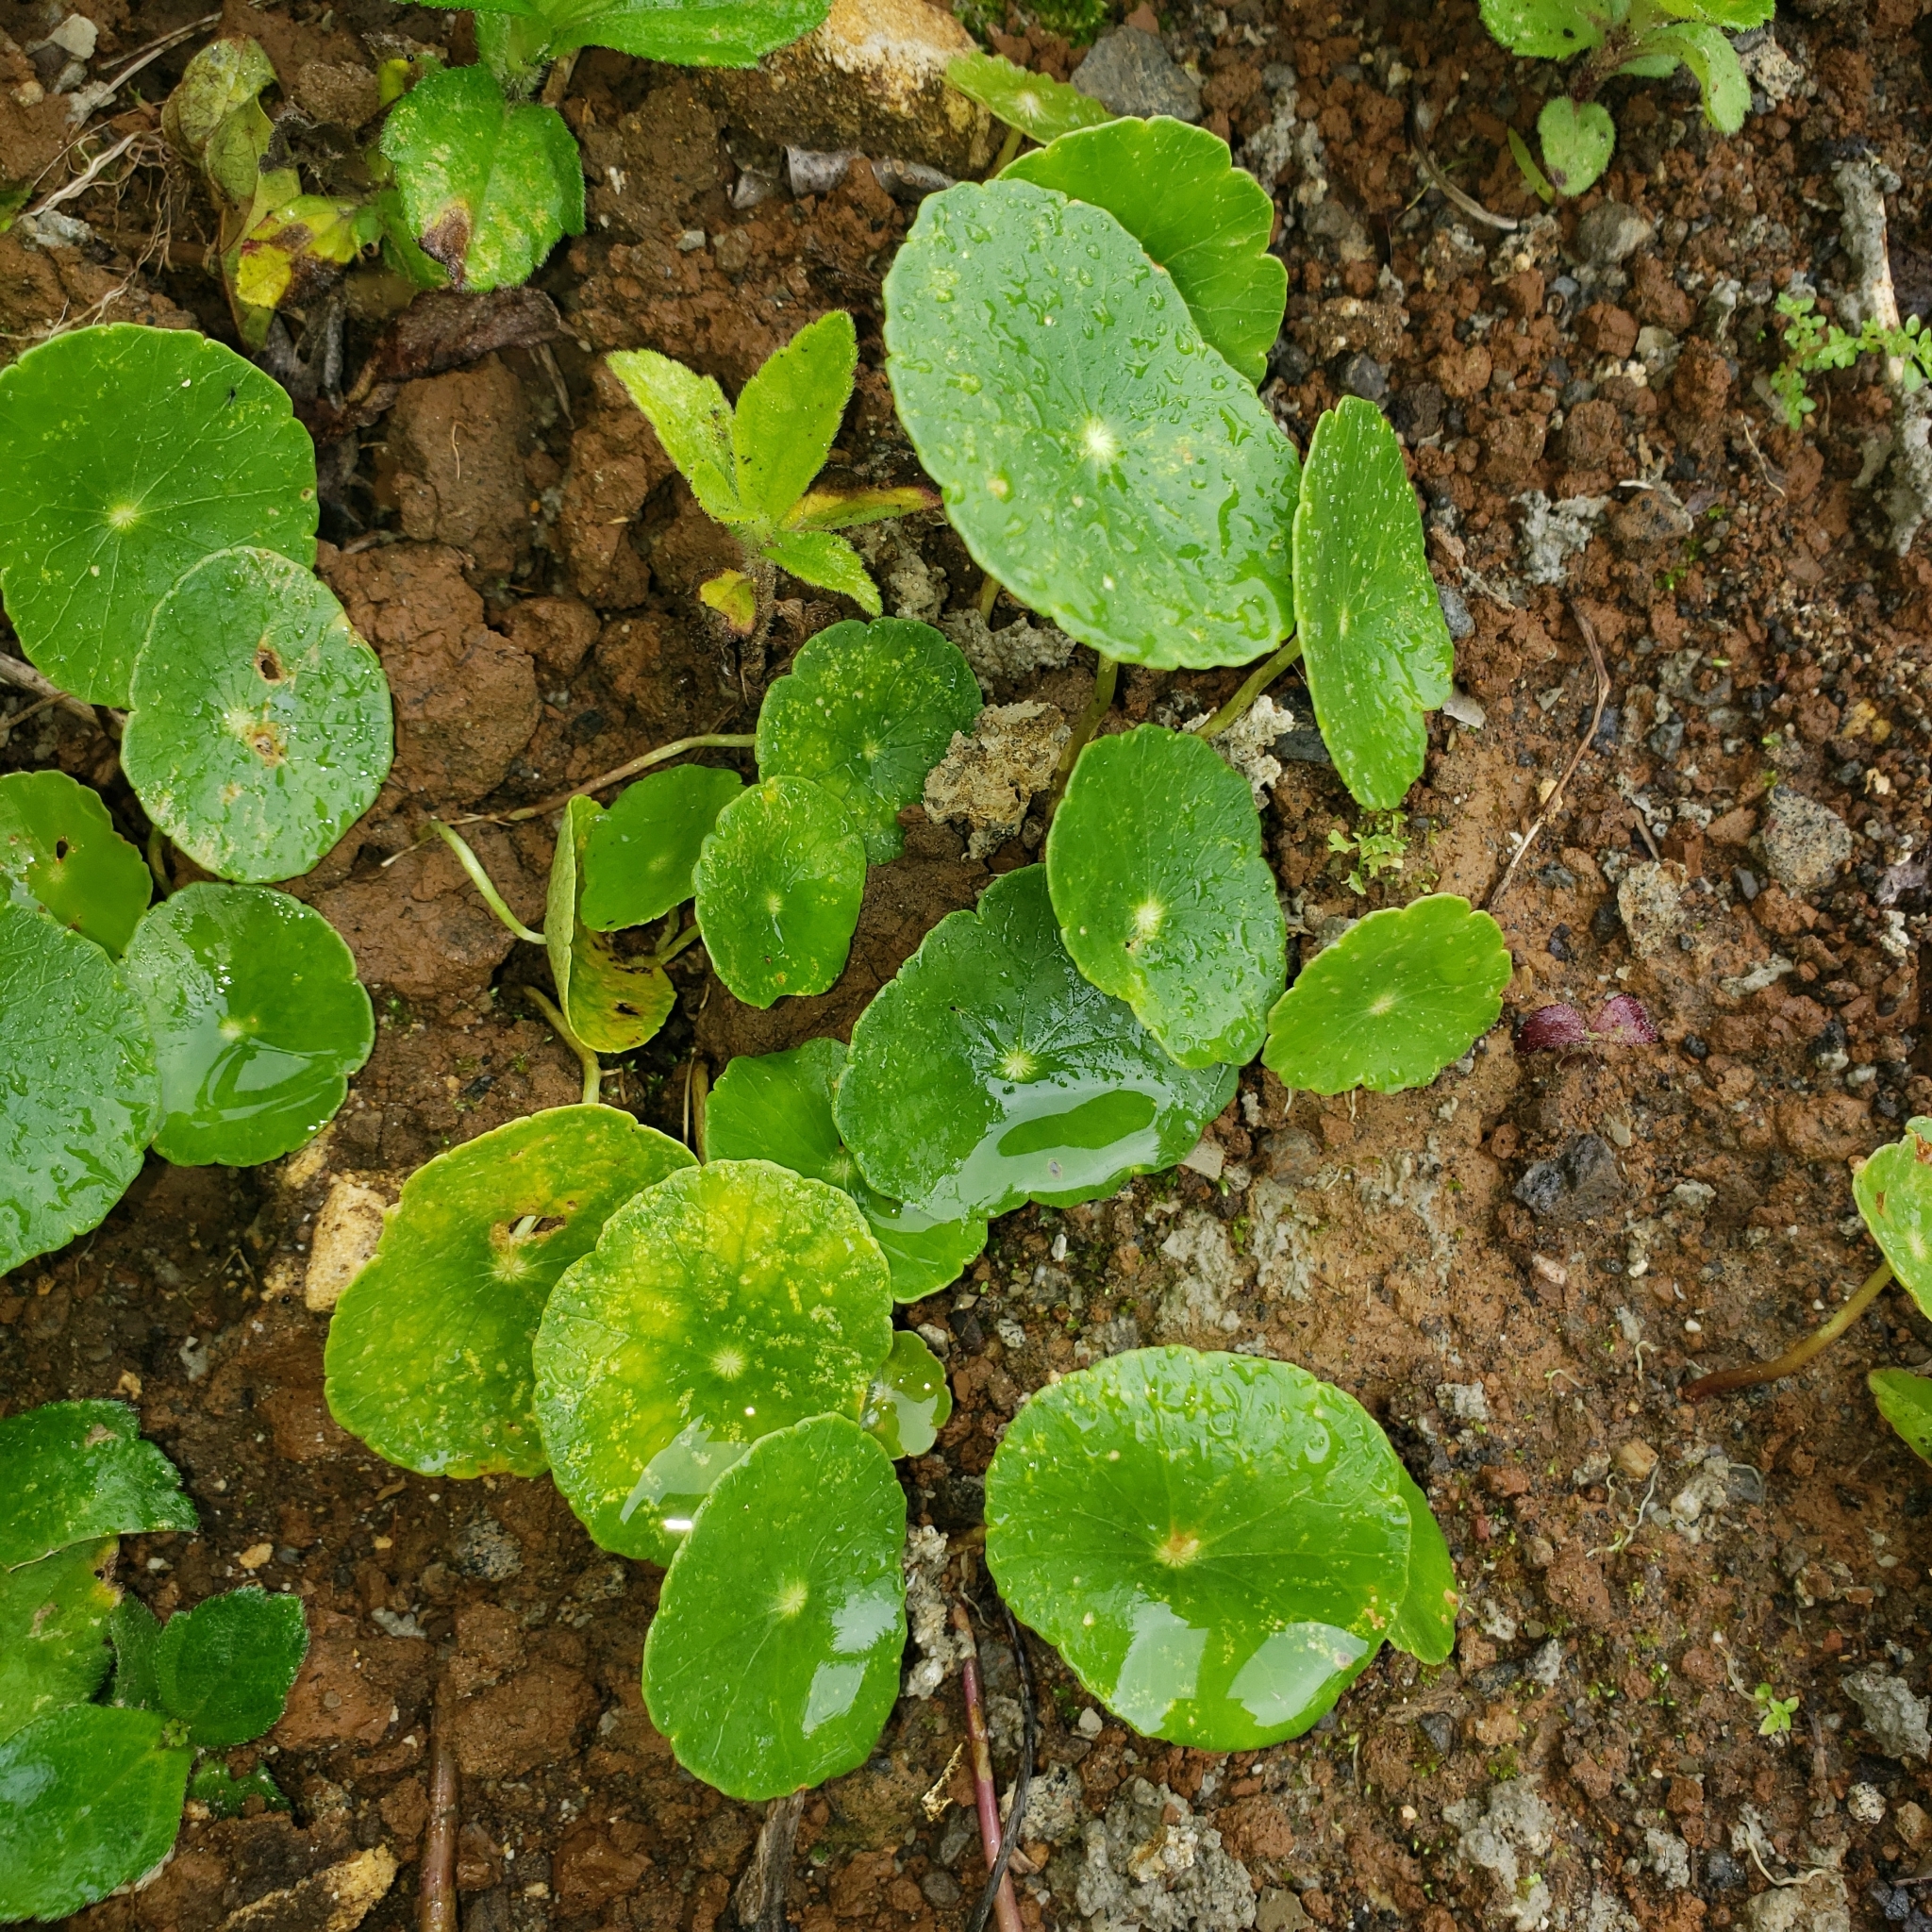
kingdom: Plantae
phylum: Tracheophyta
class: Magnoliopsida
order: Apiales
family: Araliaceae
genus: Hydrocotyle
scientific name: Hydrocotyle verticillata
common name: Whorled marshpennywort
